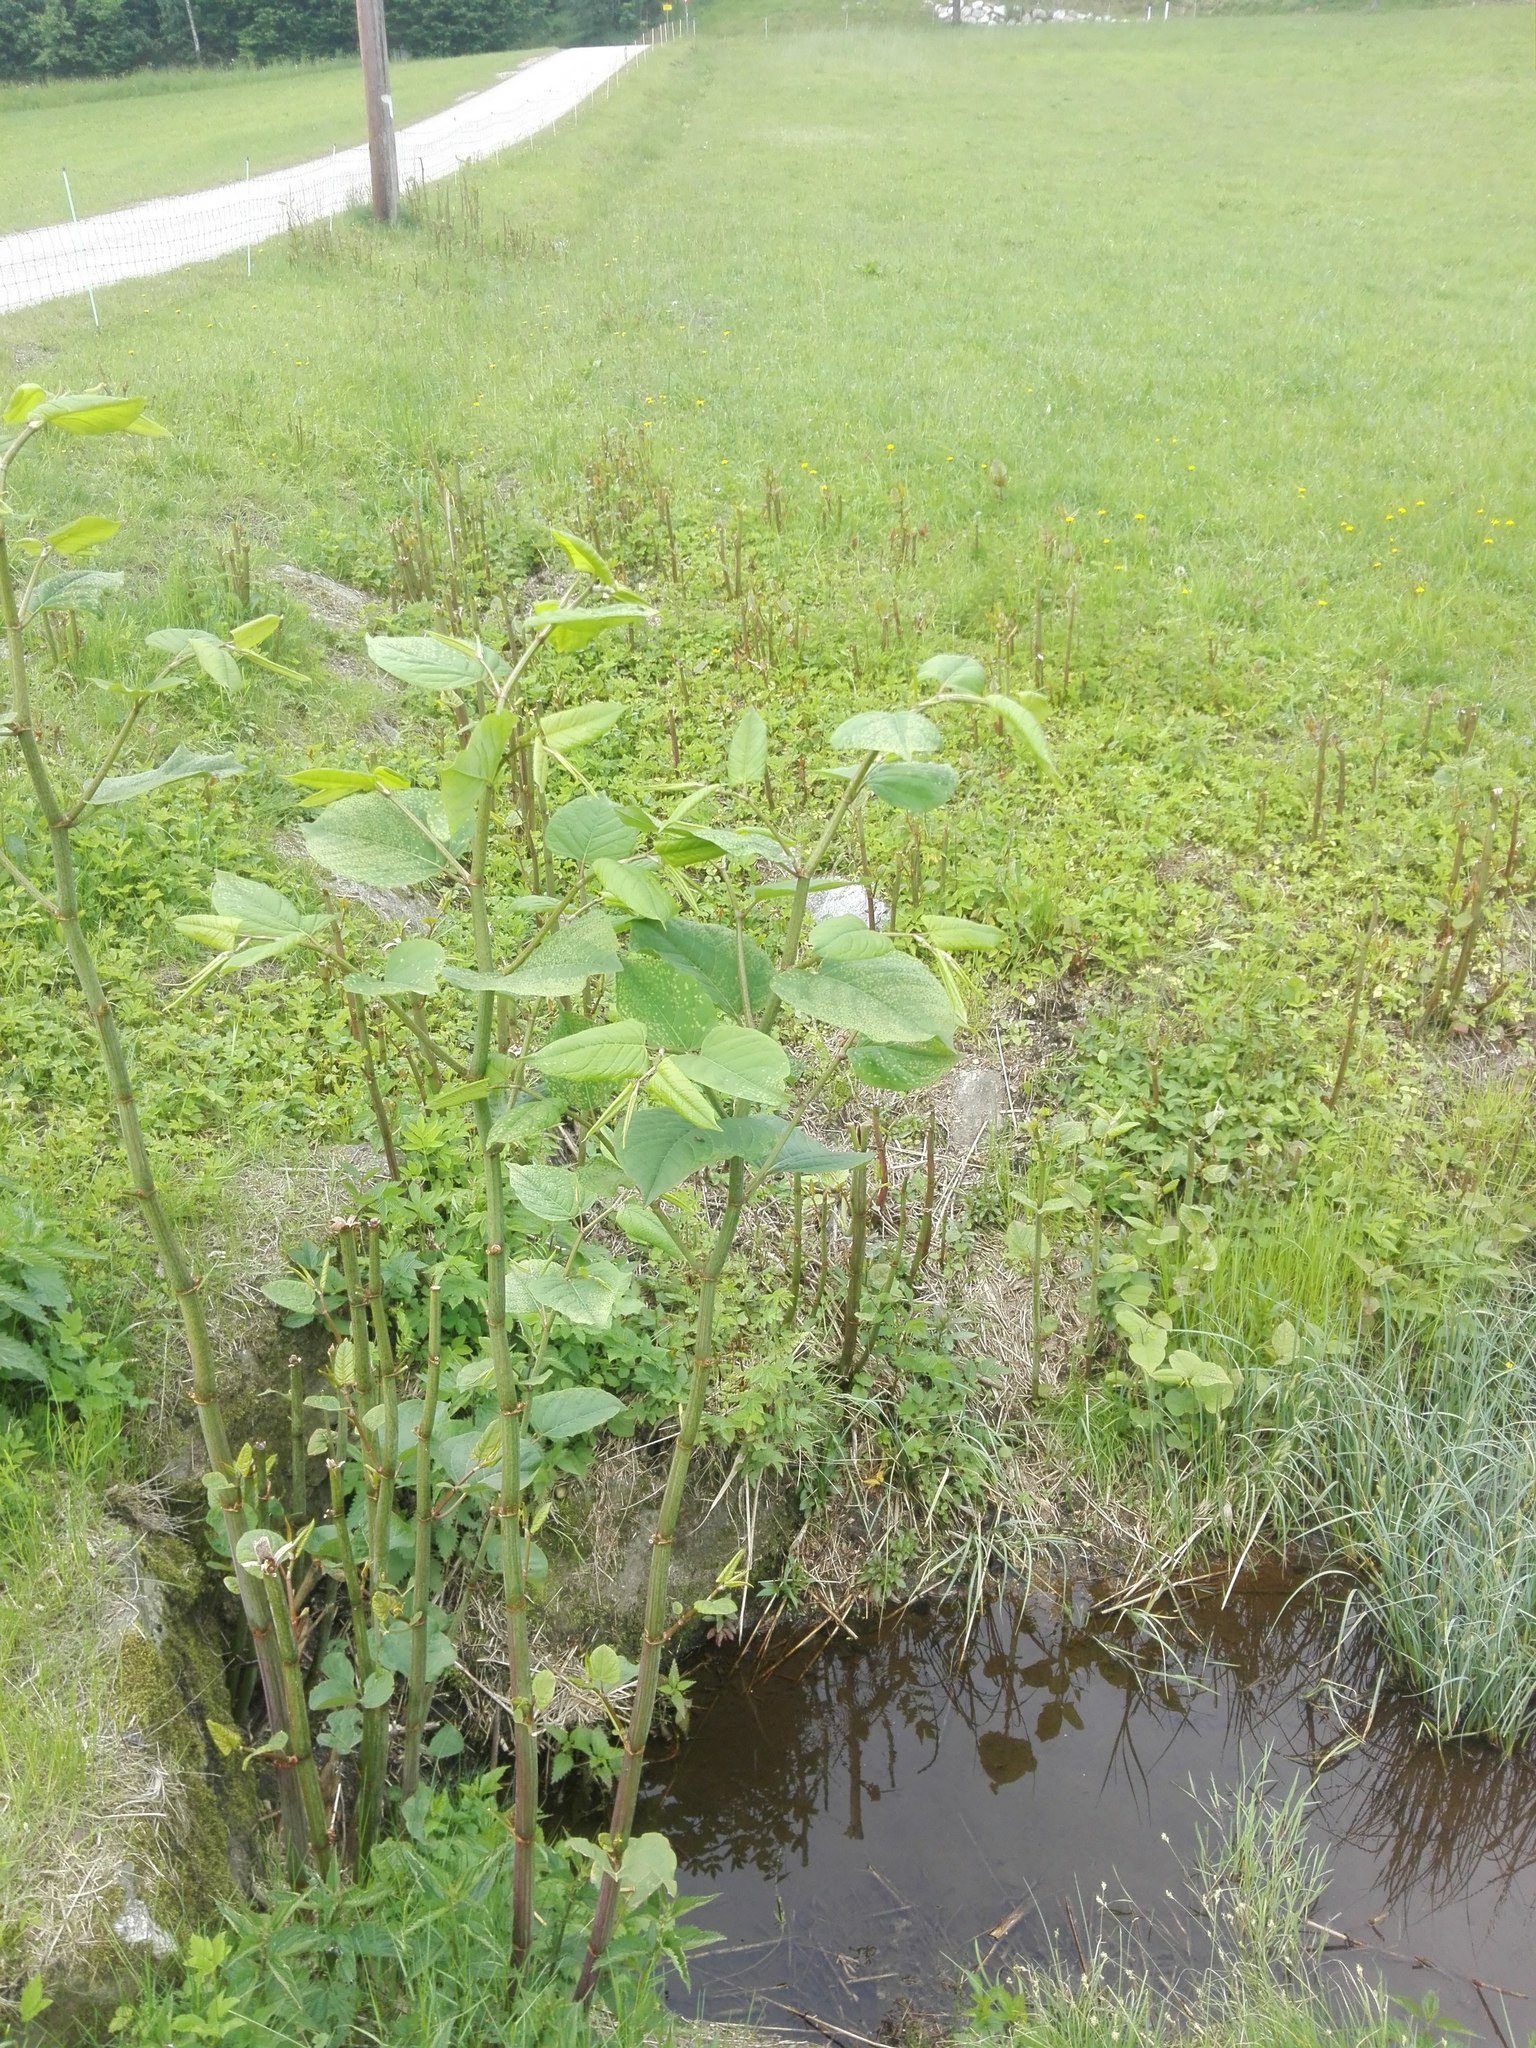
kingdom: Plantae
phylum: Tracheophyta
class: Magnoliopsida
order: Caryophyllales
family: Polygonaceae
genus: Reynoutria
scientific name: Reynoutria bohemica
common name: Bohemian knotweed
